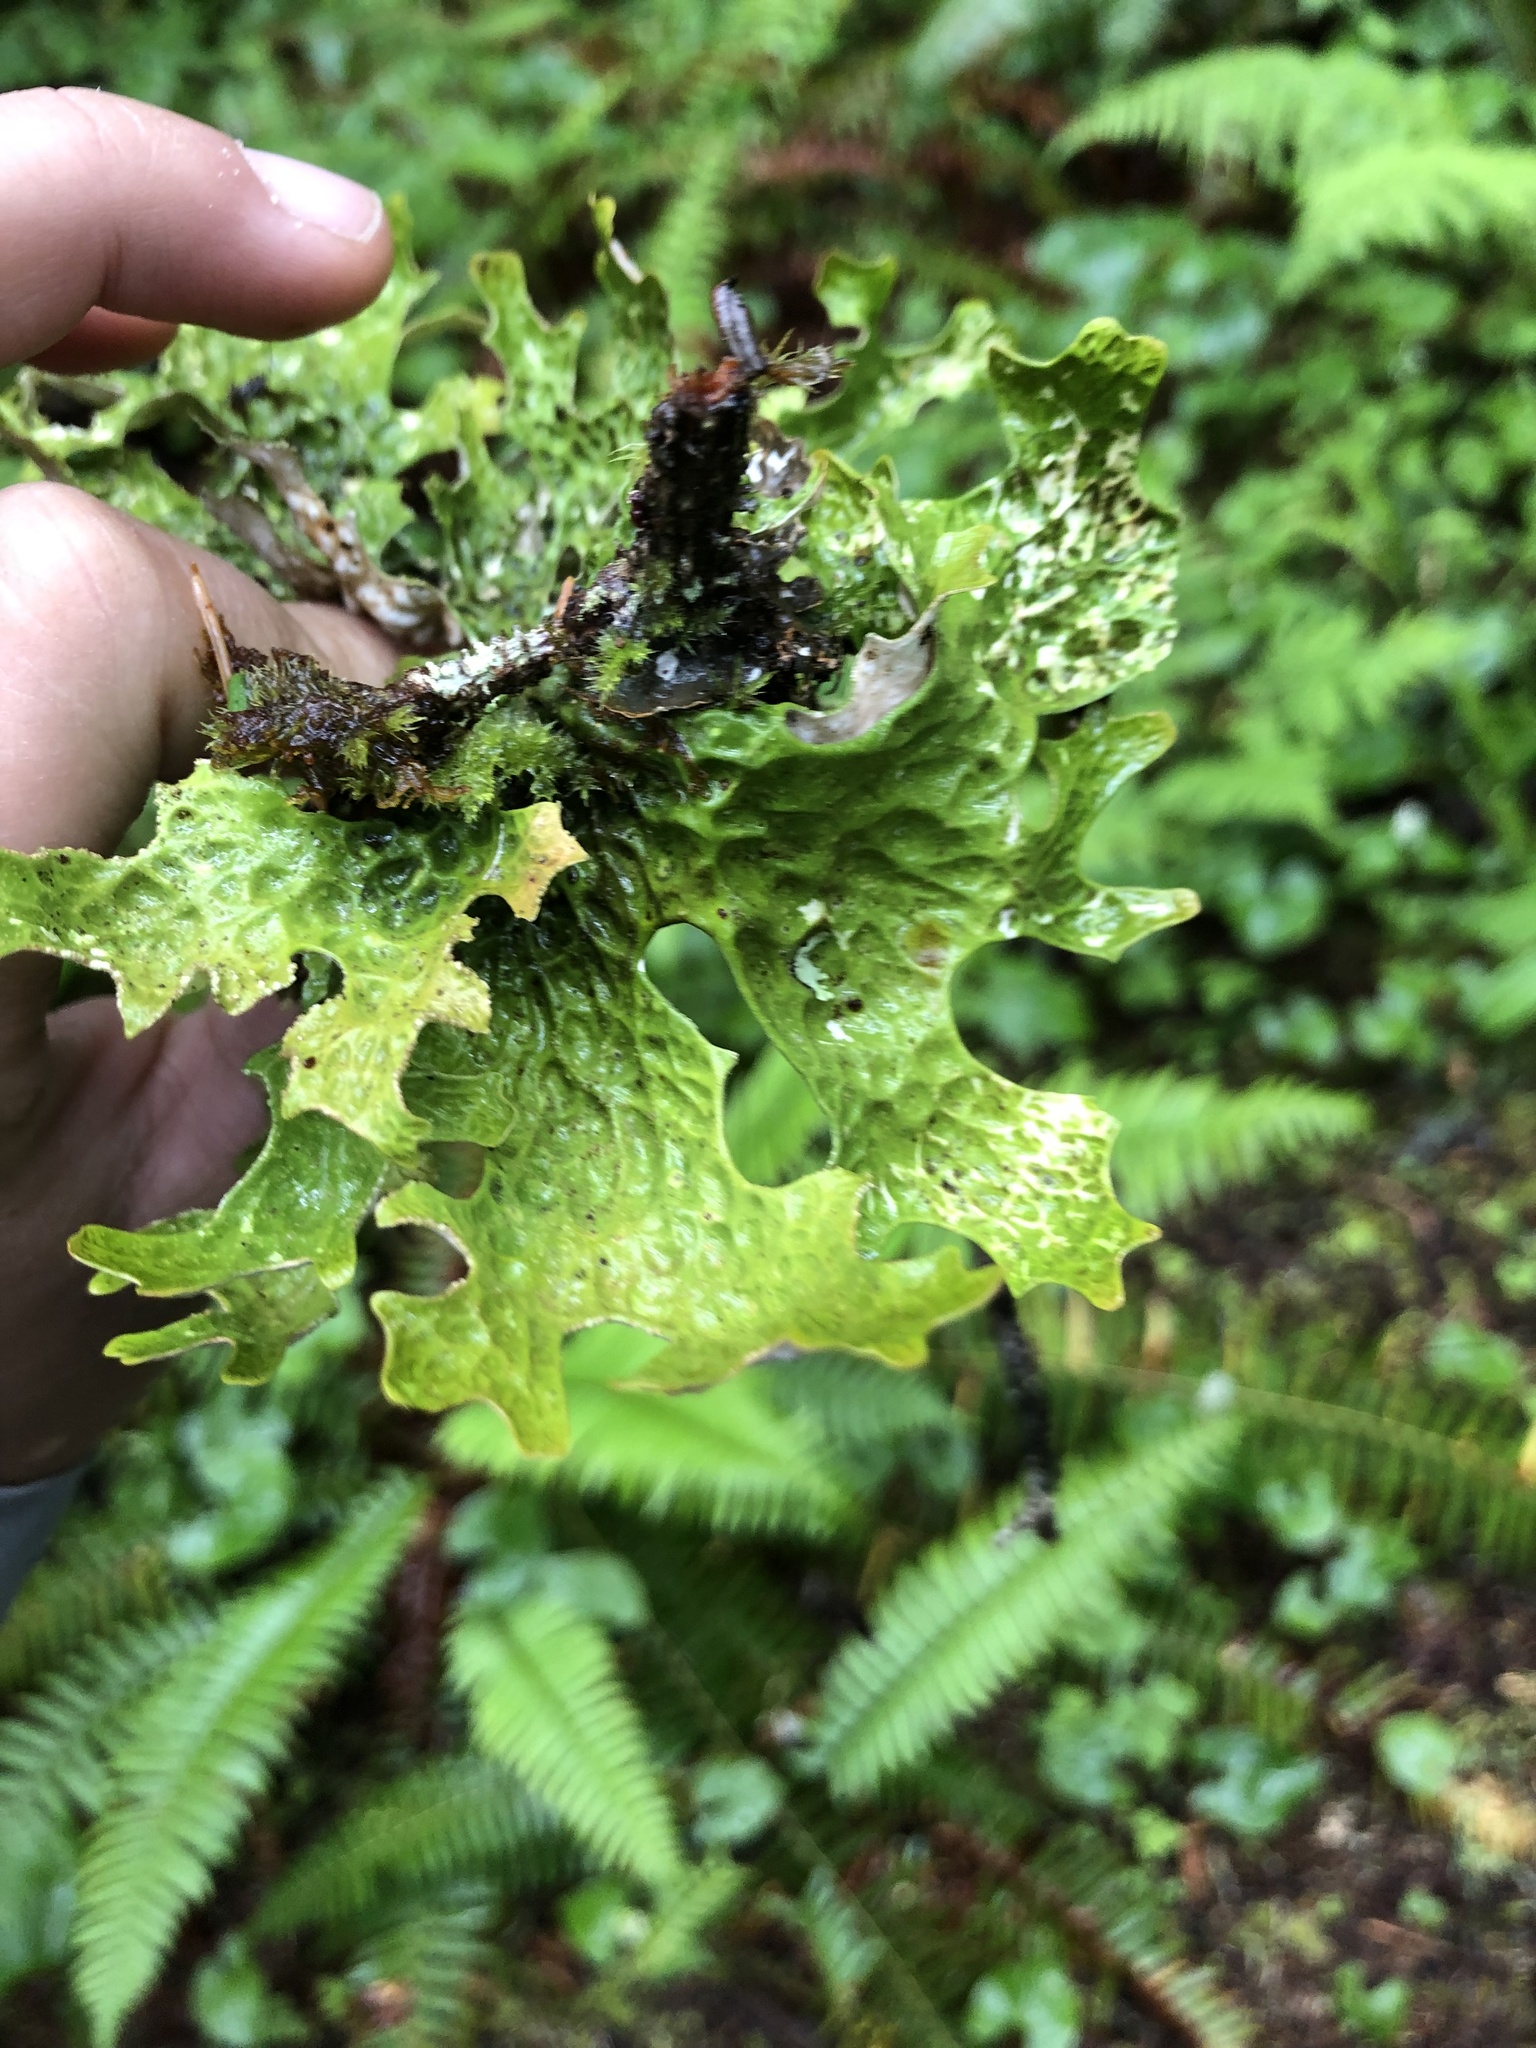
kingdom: Fungi
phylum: Ascomycota
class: Lecanoromycetes
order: Peltigerales
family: Lobariaceae
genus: Lobaria
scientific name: Lobaria pulmonaria
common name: Lungwort
